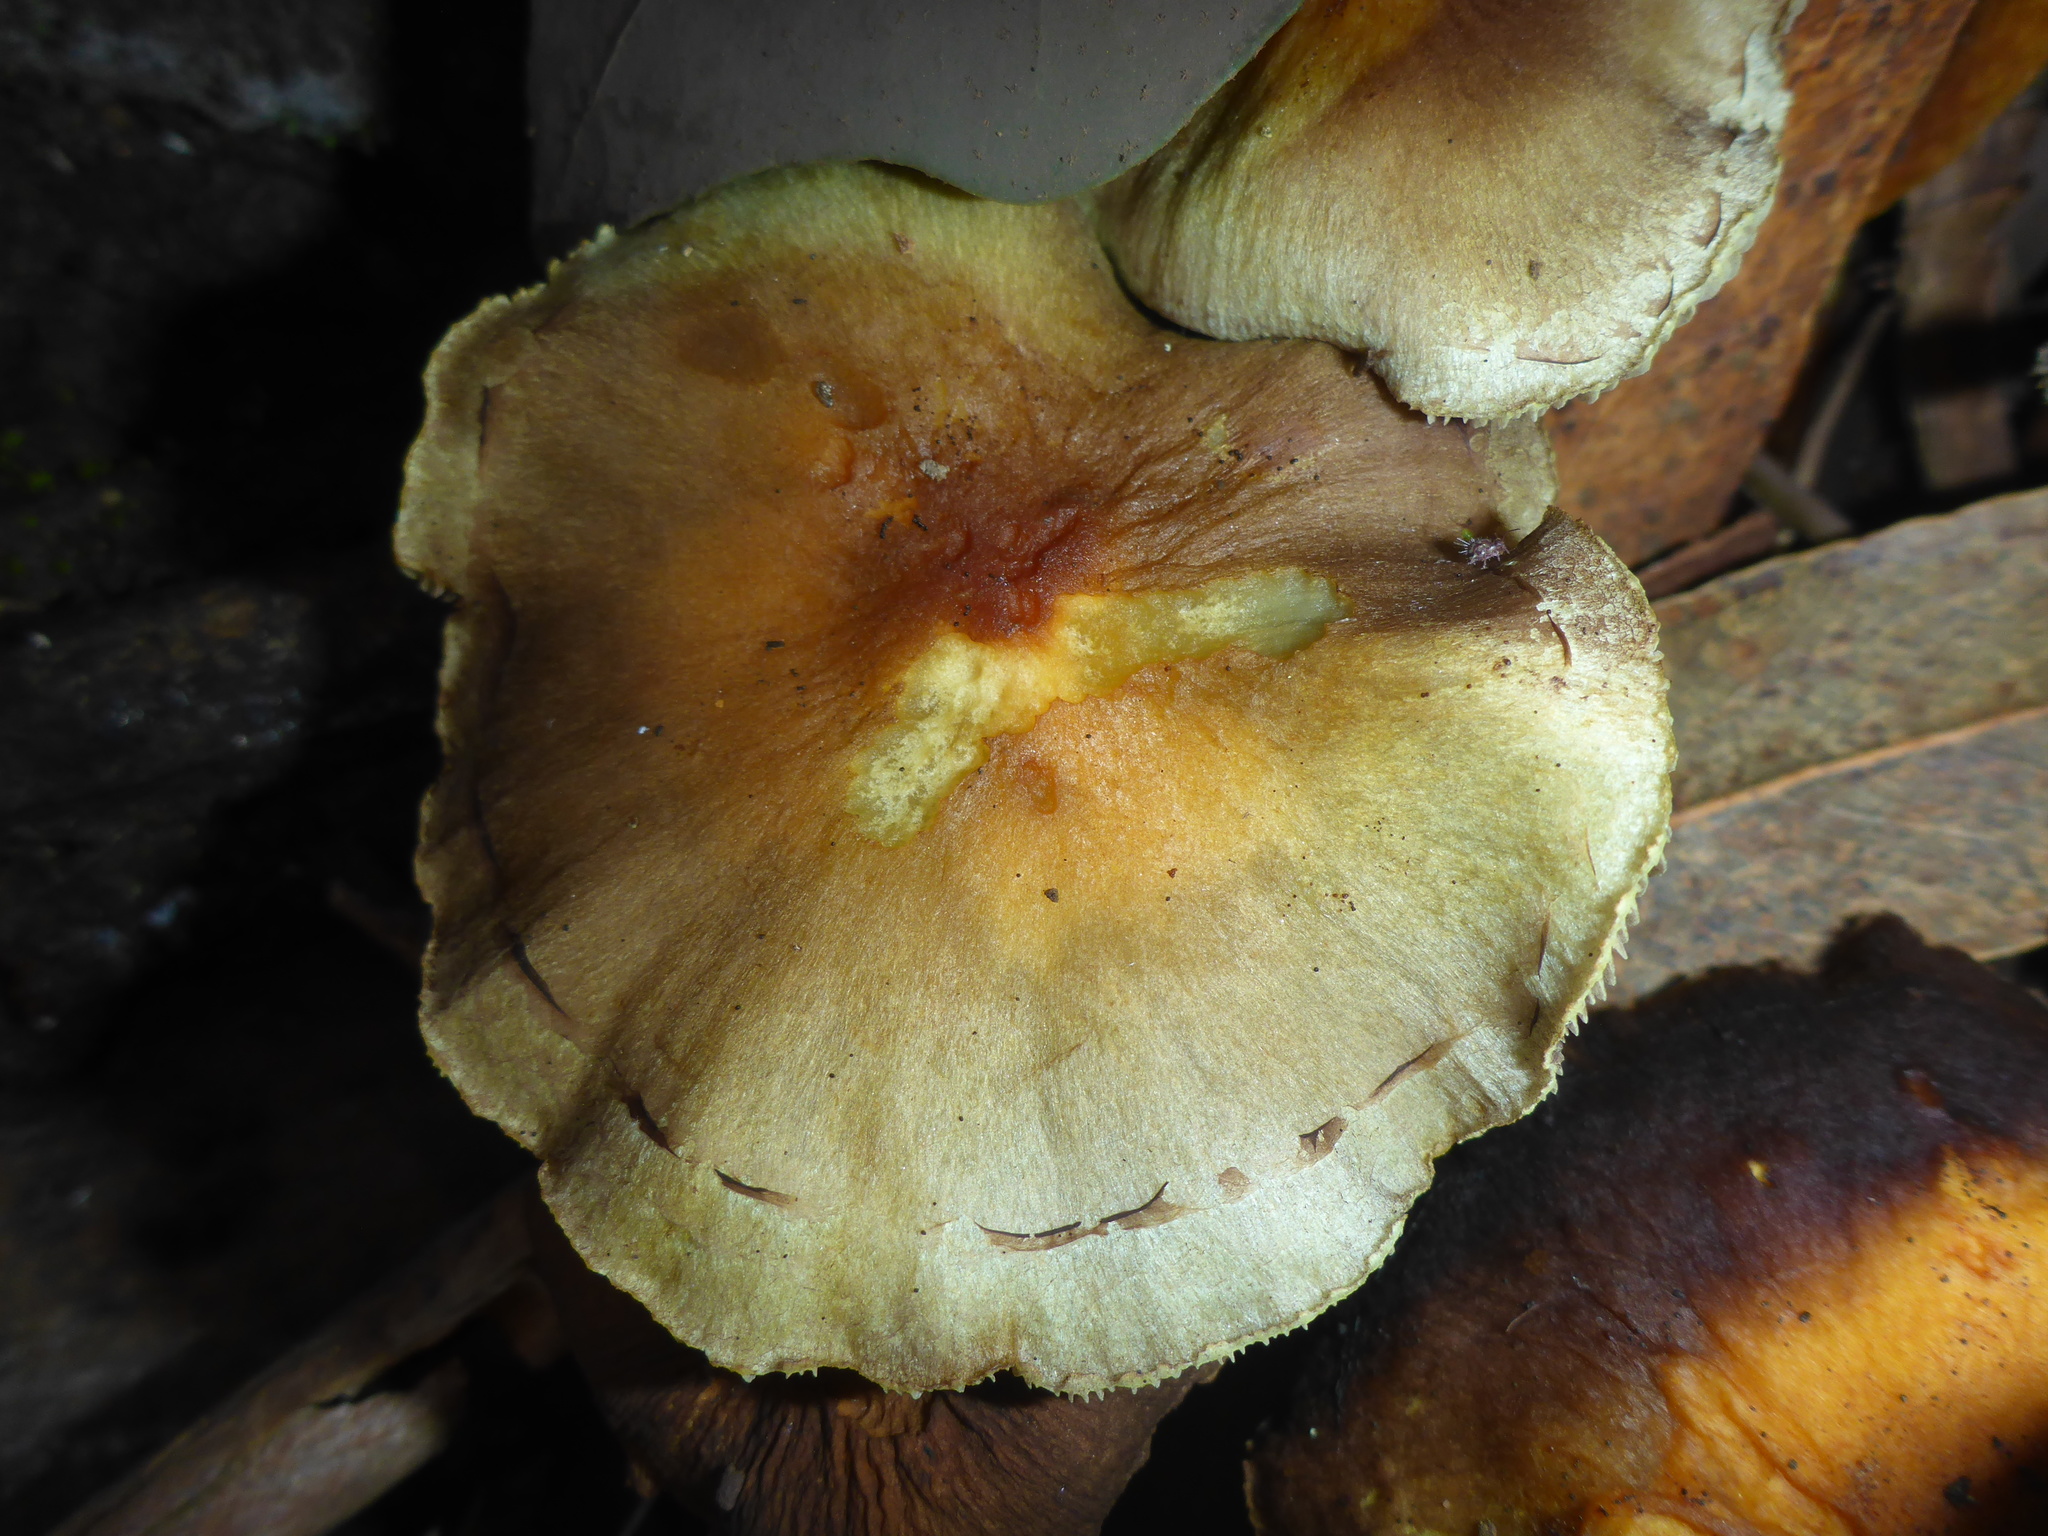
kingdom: Fungi
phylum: Basidiomycota
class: Agaricomycetes
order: Agaricales
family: Strophariaceae
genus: Hypholoma
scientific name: Hypholoma fasciculare
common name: Sulphur tuft
